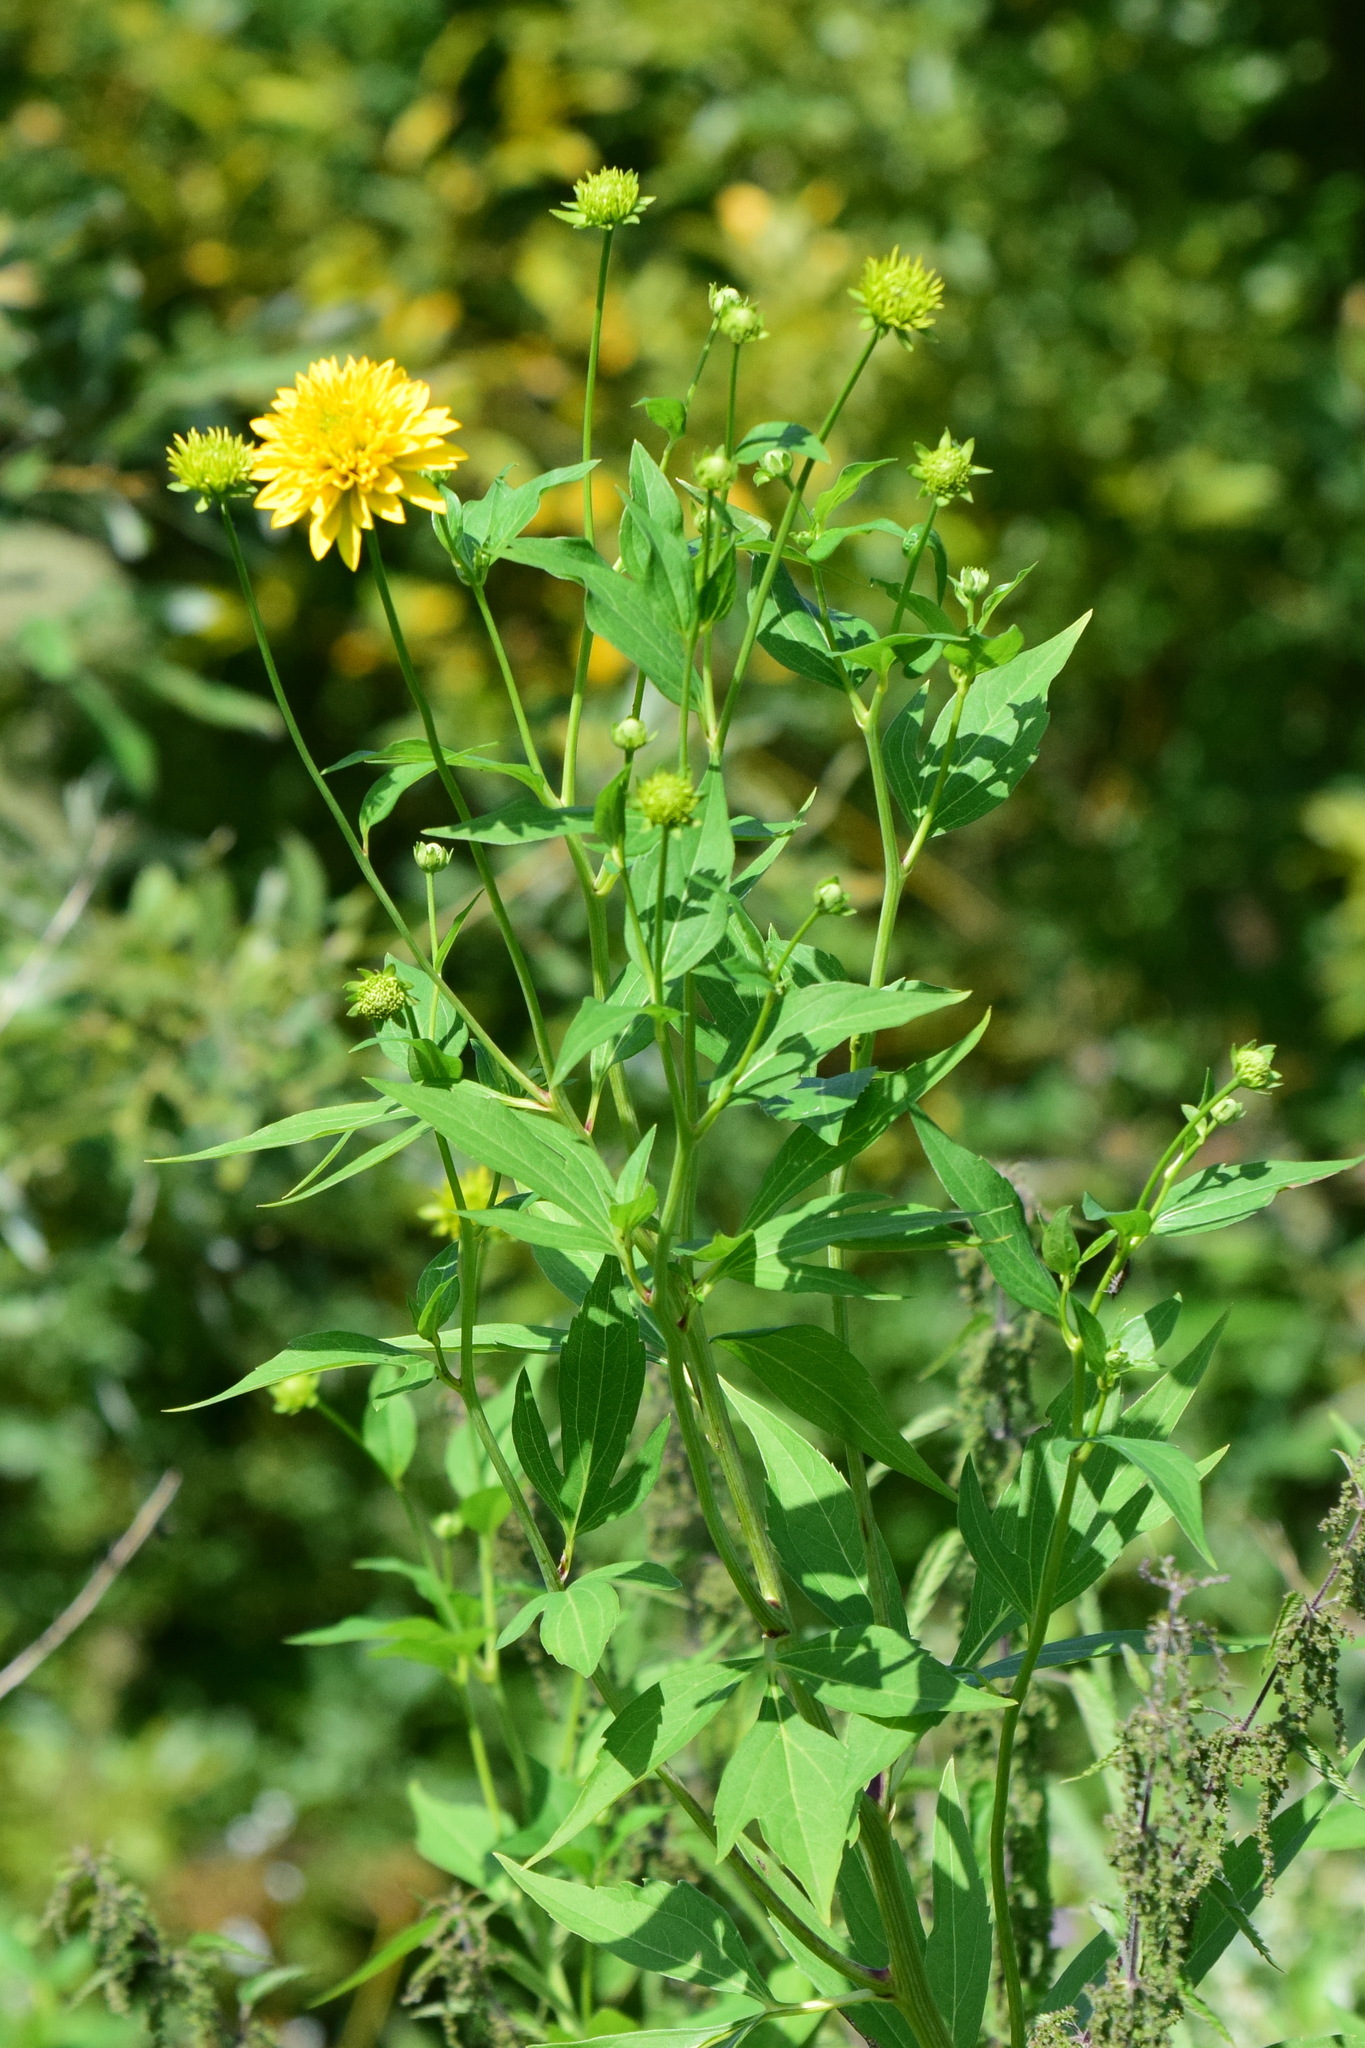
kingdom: Plantae
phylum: Tracheophyta
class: Magnoliopsida
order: Asterales
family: Asteraceae
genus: Rudbeckia
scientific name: Rudbeckia laciniata
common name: Coneflower
